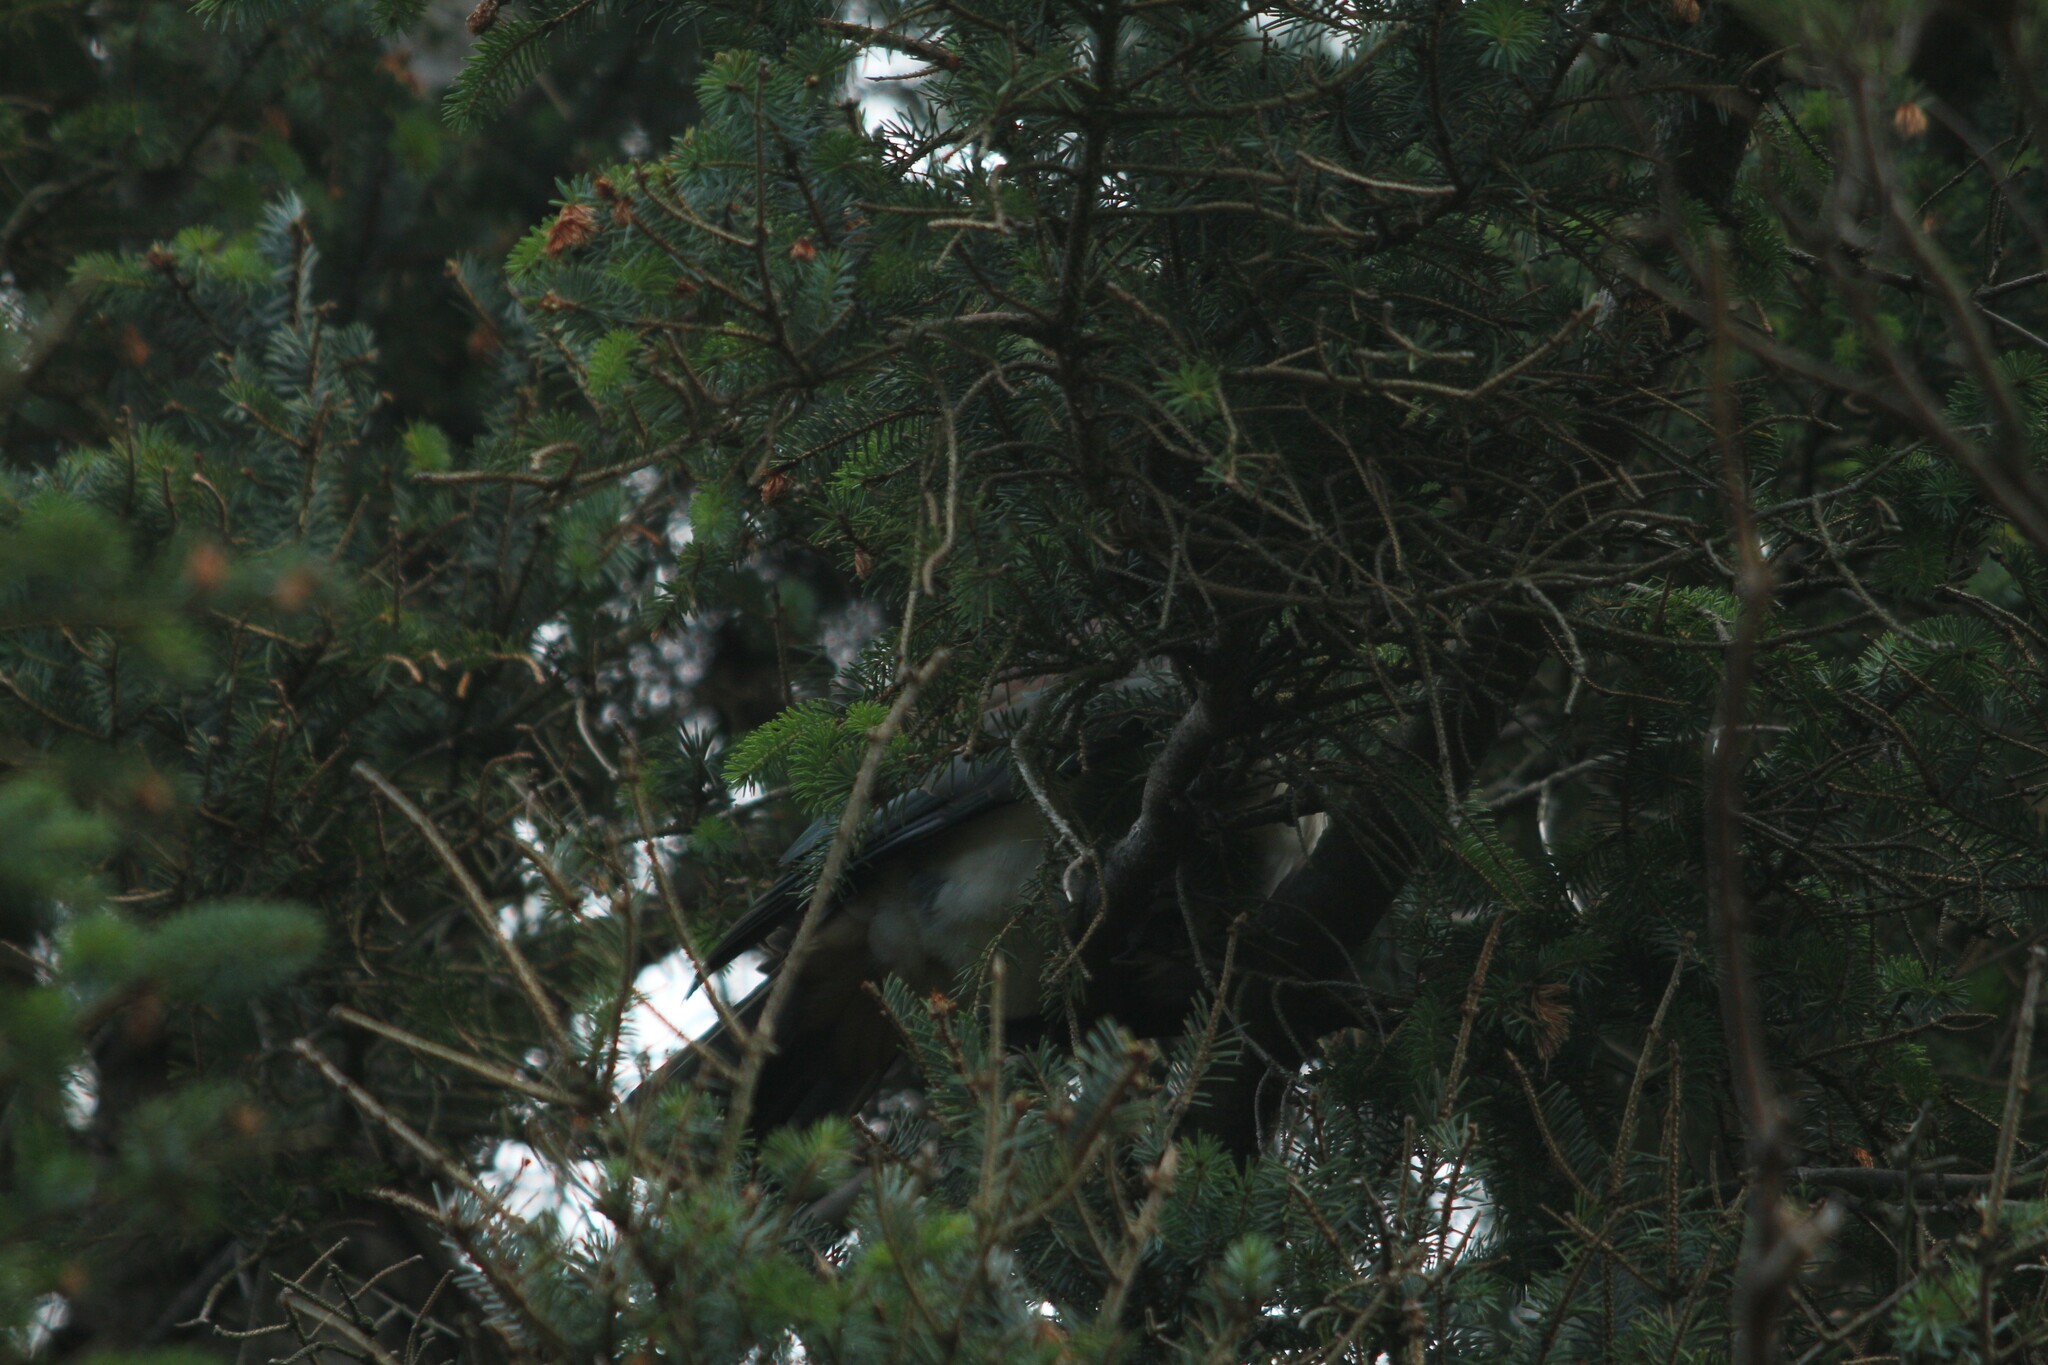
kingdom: Animalia
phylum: Chordata
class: Aves
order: Columbiformes
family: Columbidae
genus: Hemiphaga
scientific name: Hemiphaga novaeseelandiae
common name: New zealand pigeon
